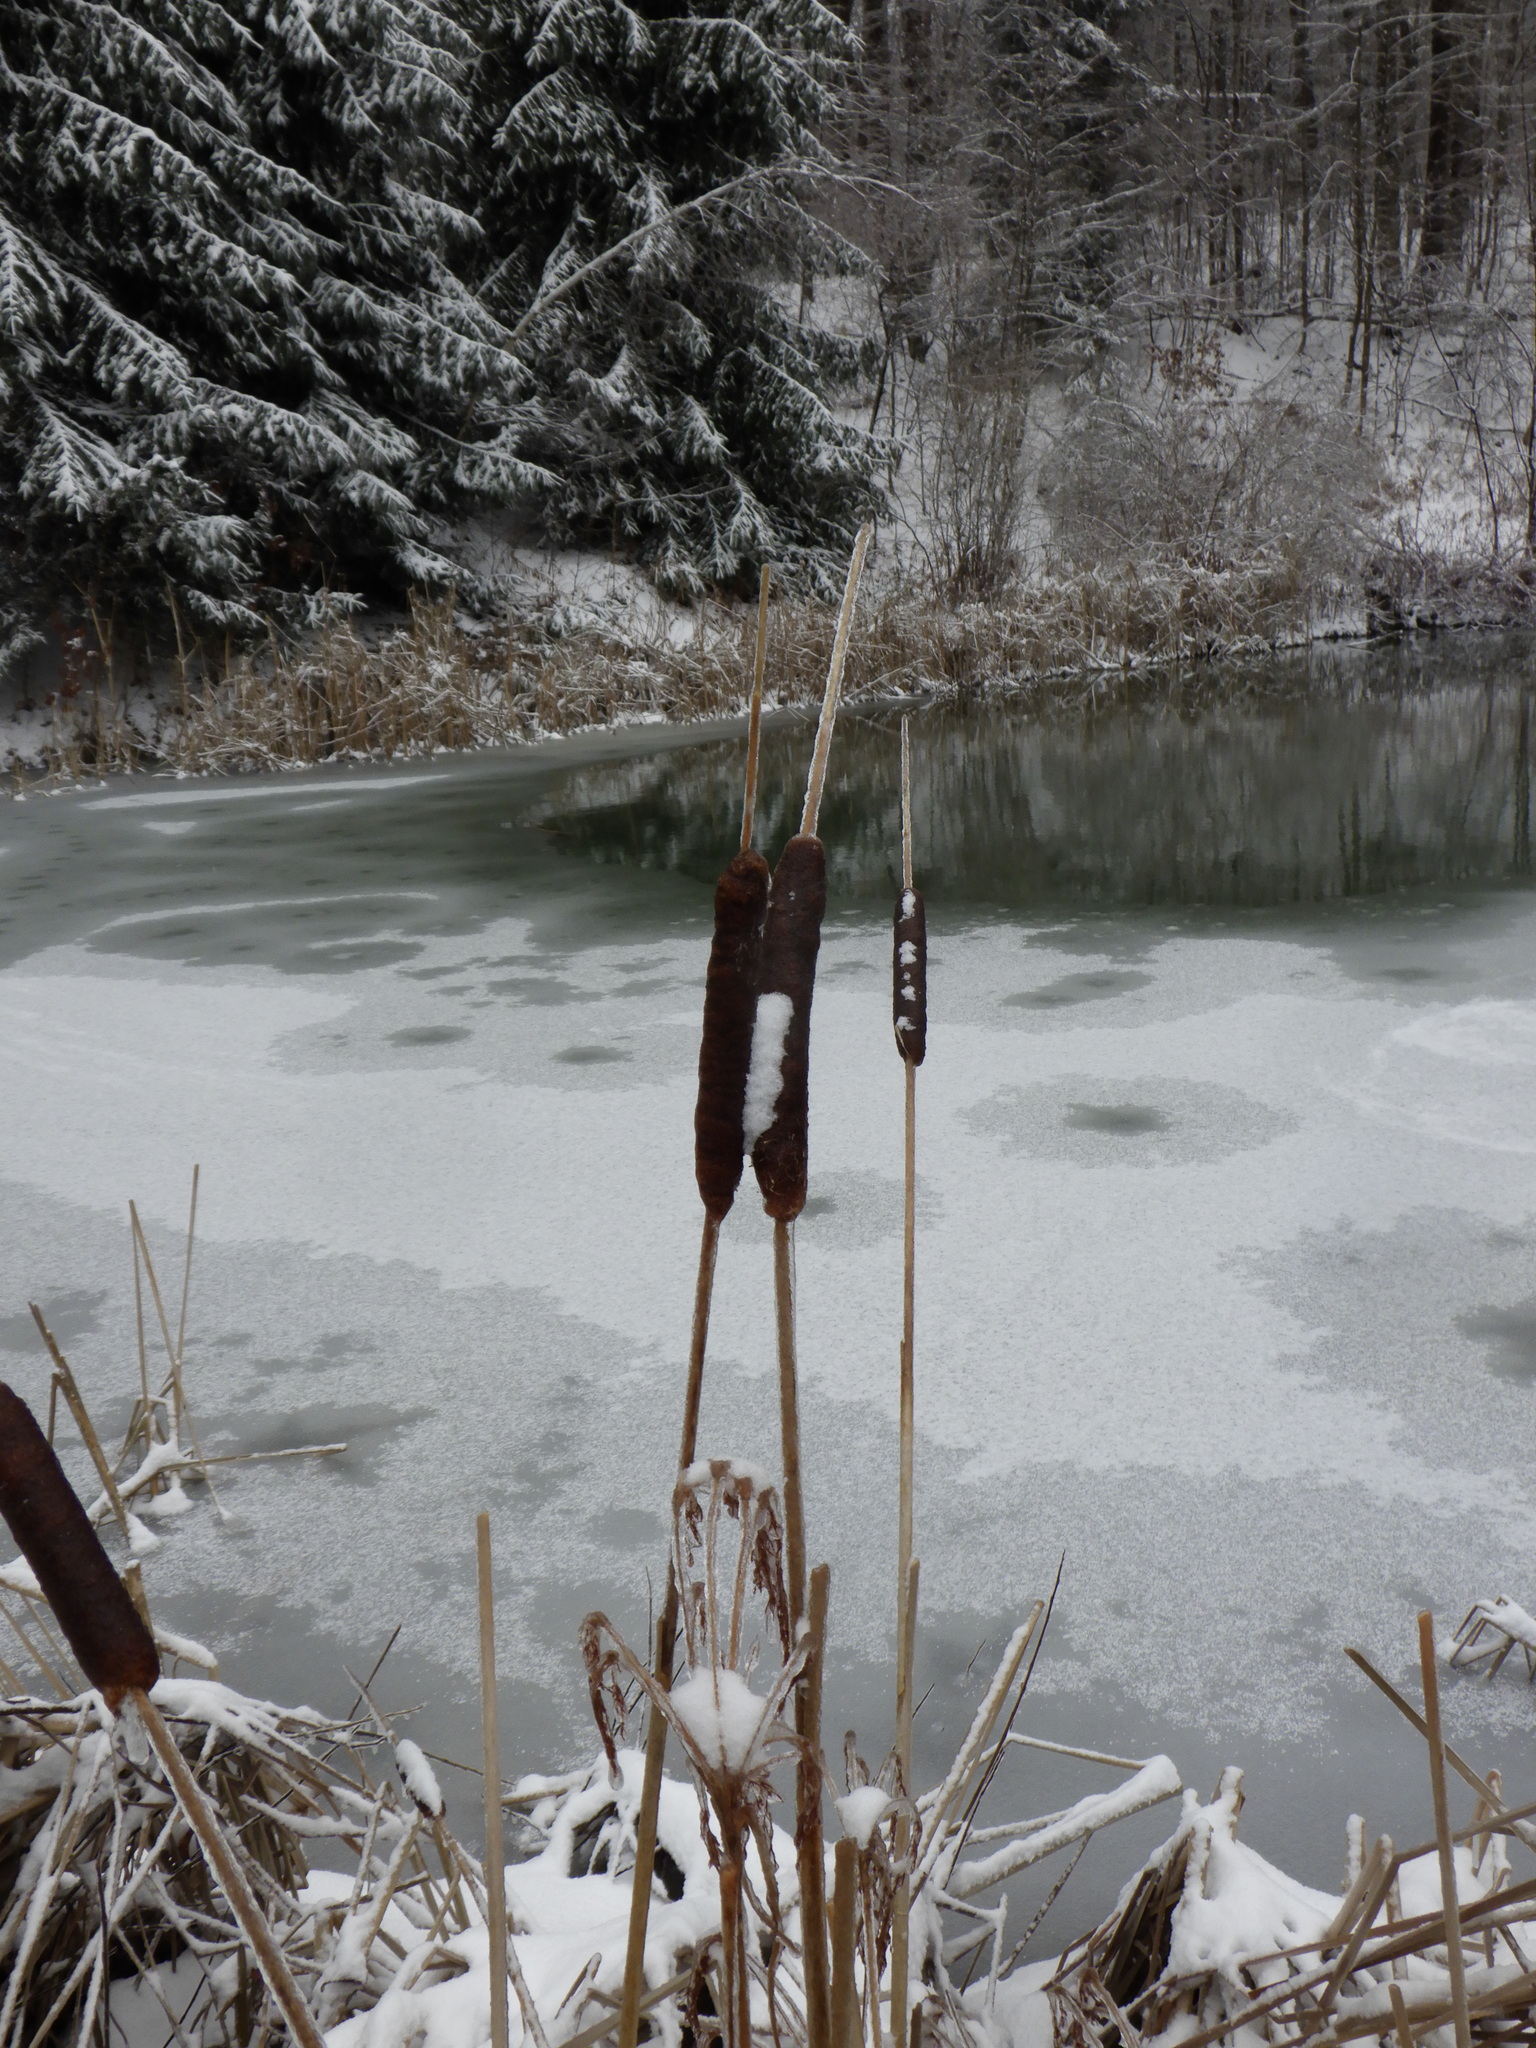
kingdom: Plantae
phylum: Tracheophyta
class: Liliopsida
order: Poales
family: Typhaceae
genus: Typha
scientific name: Typha
